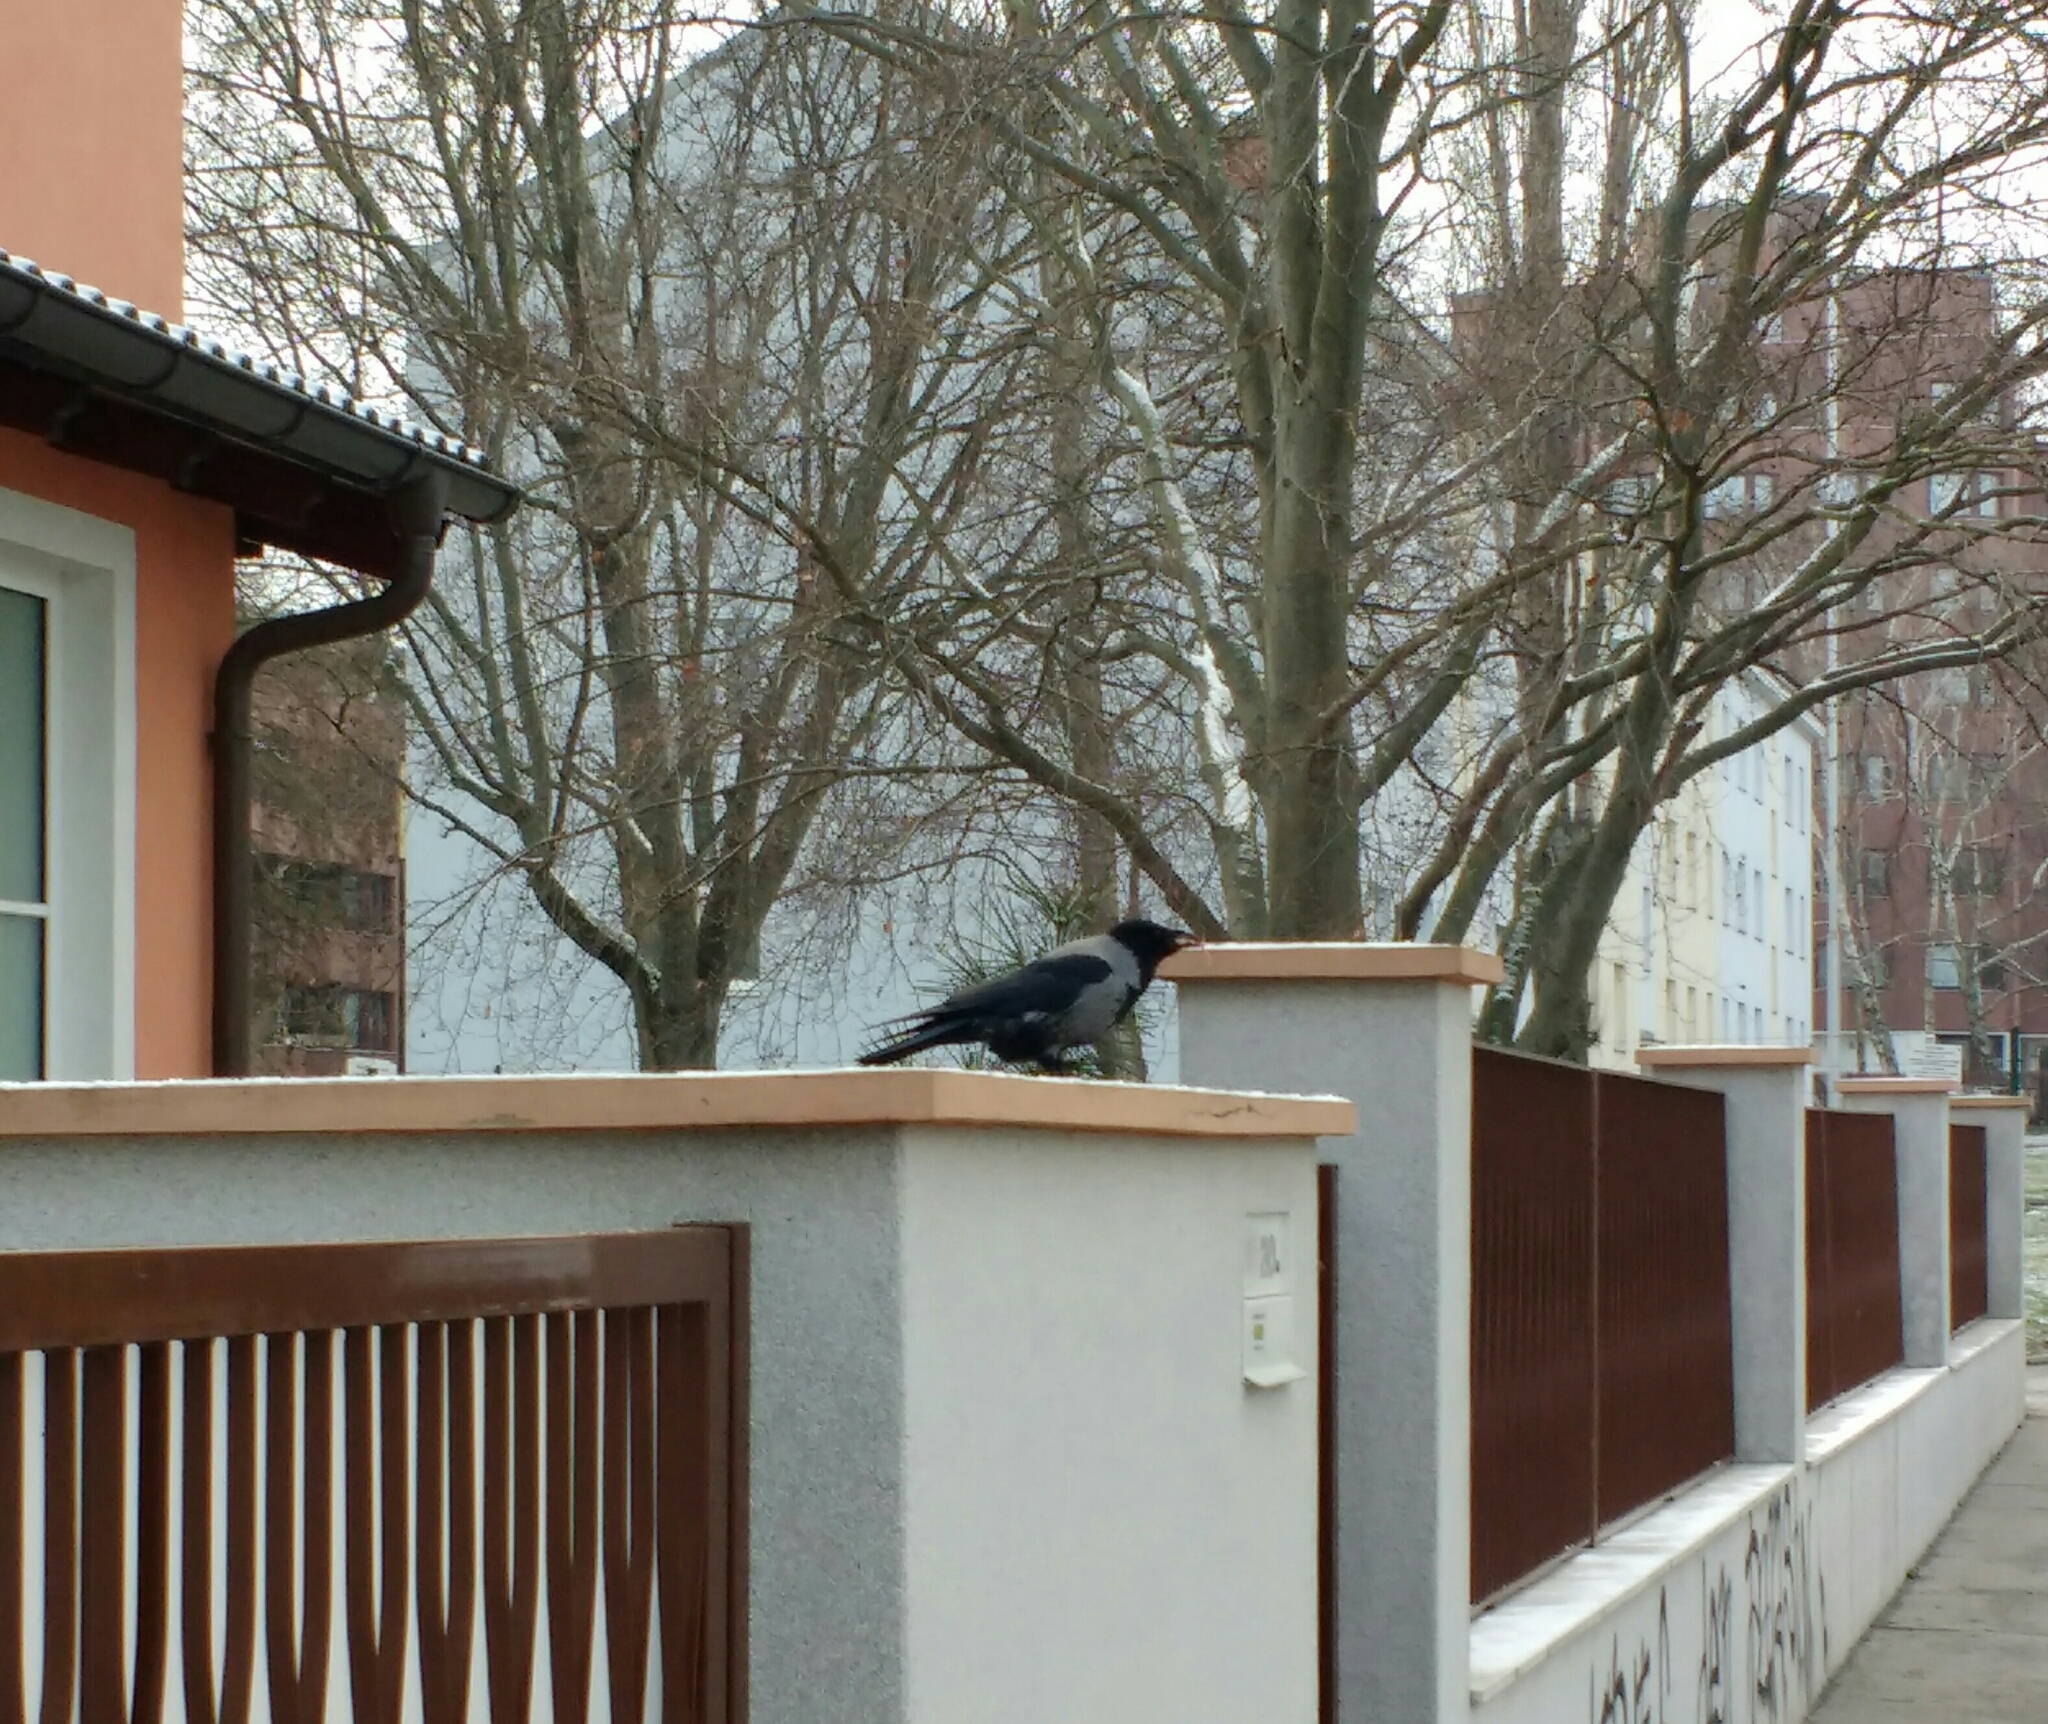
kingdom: Animalia
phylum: Chordata
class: Aves
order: Passeriformes
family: Corvidae
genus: Corvus
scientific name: Corvus cornix
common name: Hooded crow
